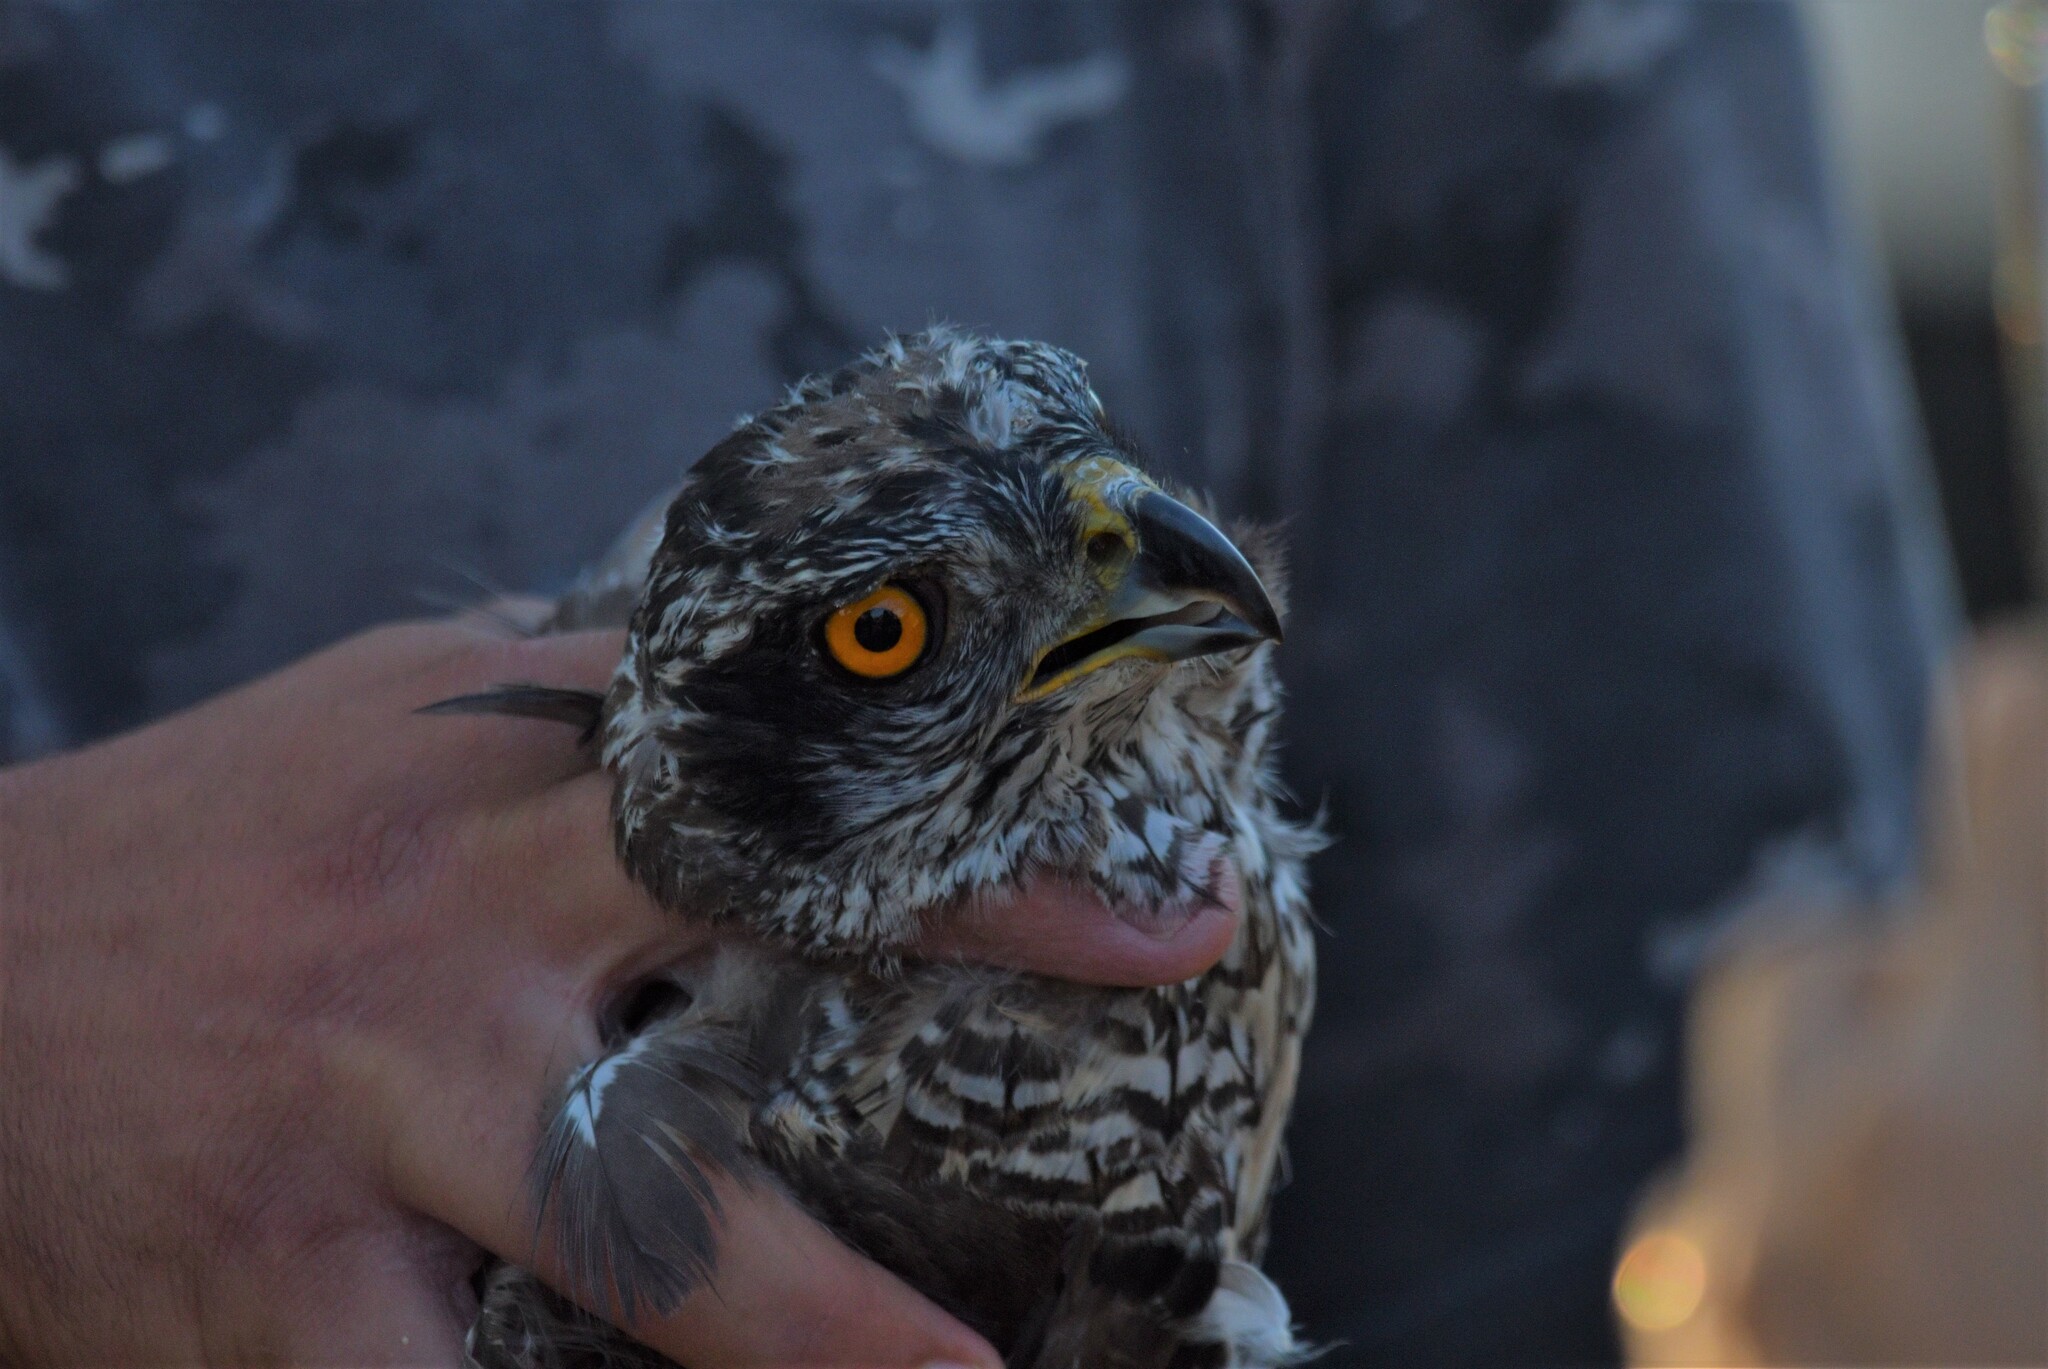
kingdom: Animalia
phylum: Chordata
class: Aves
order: Accipitriformes
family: Accipitridae
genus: Accipiter
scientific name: Accipiter gentilis
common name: Northern goshawk
